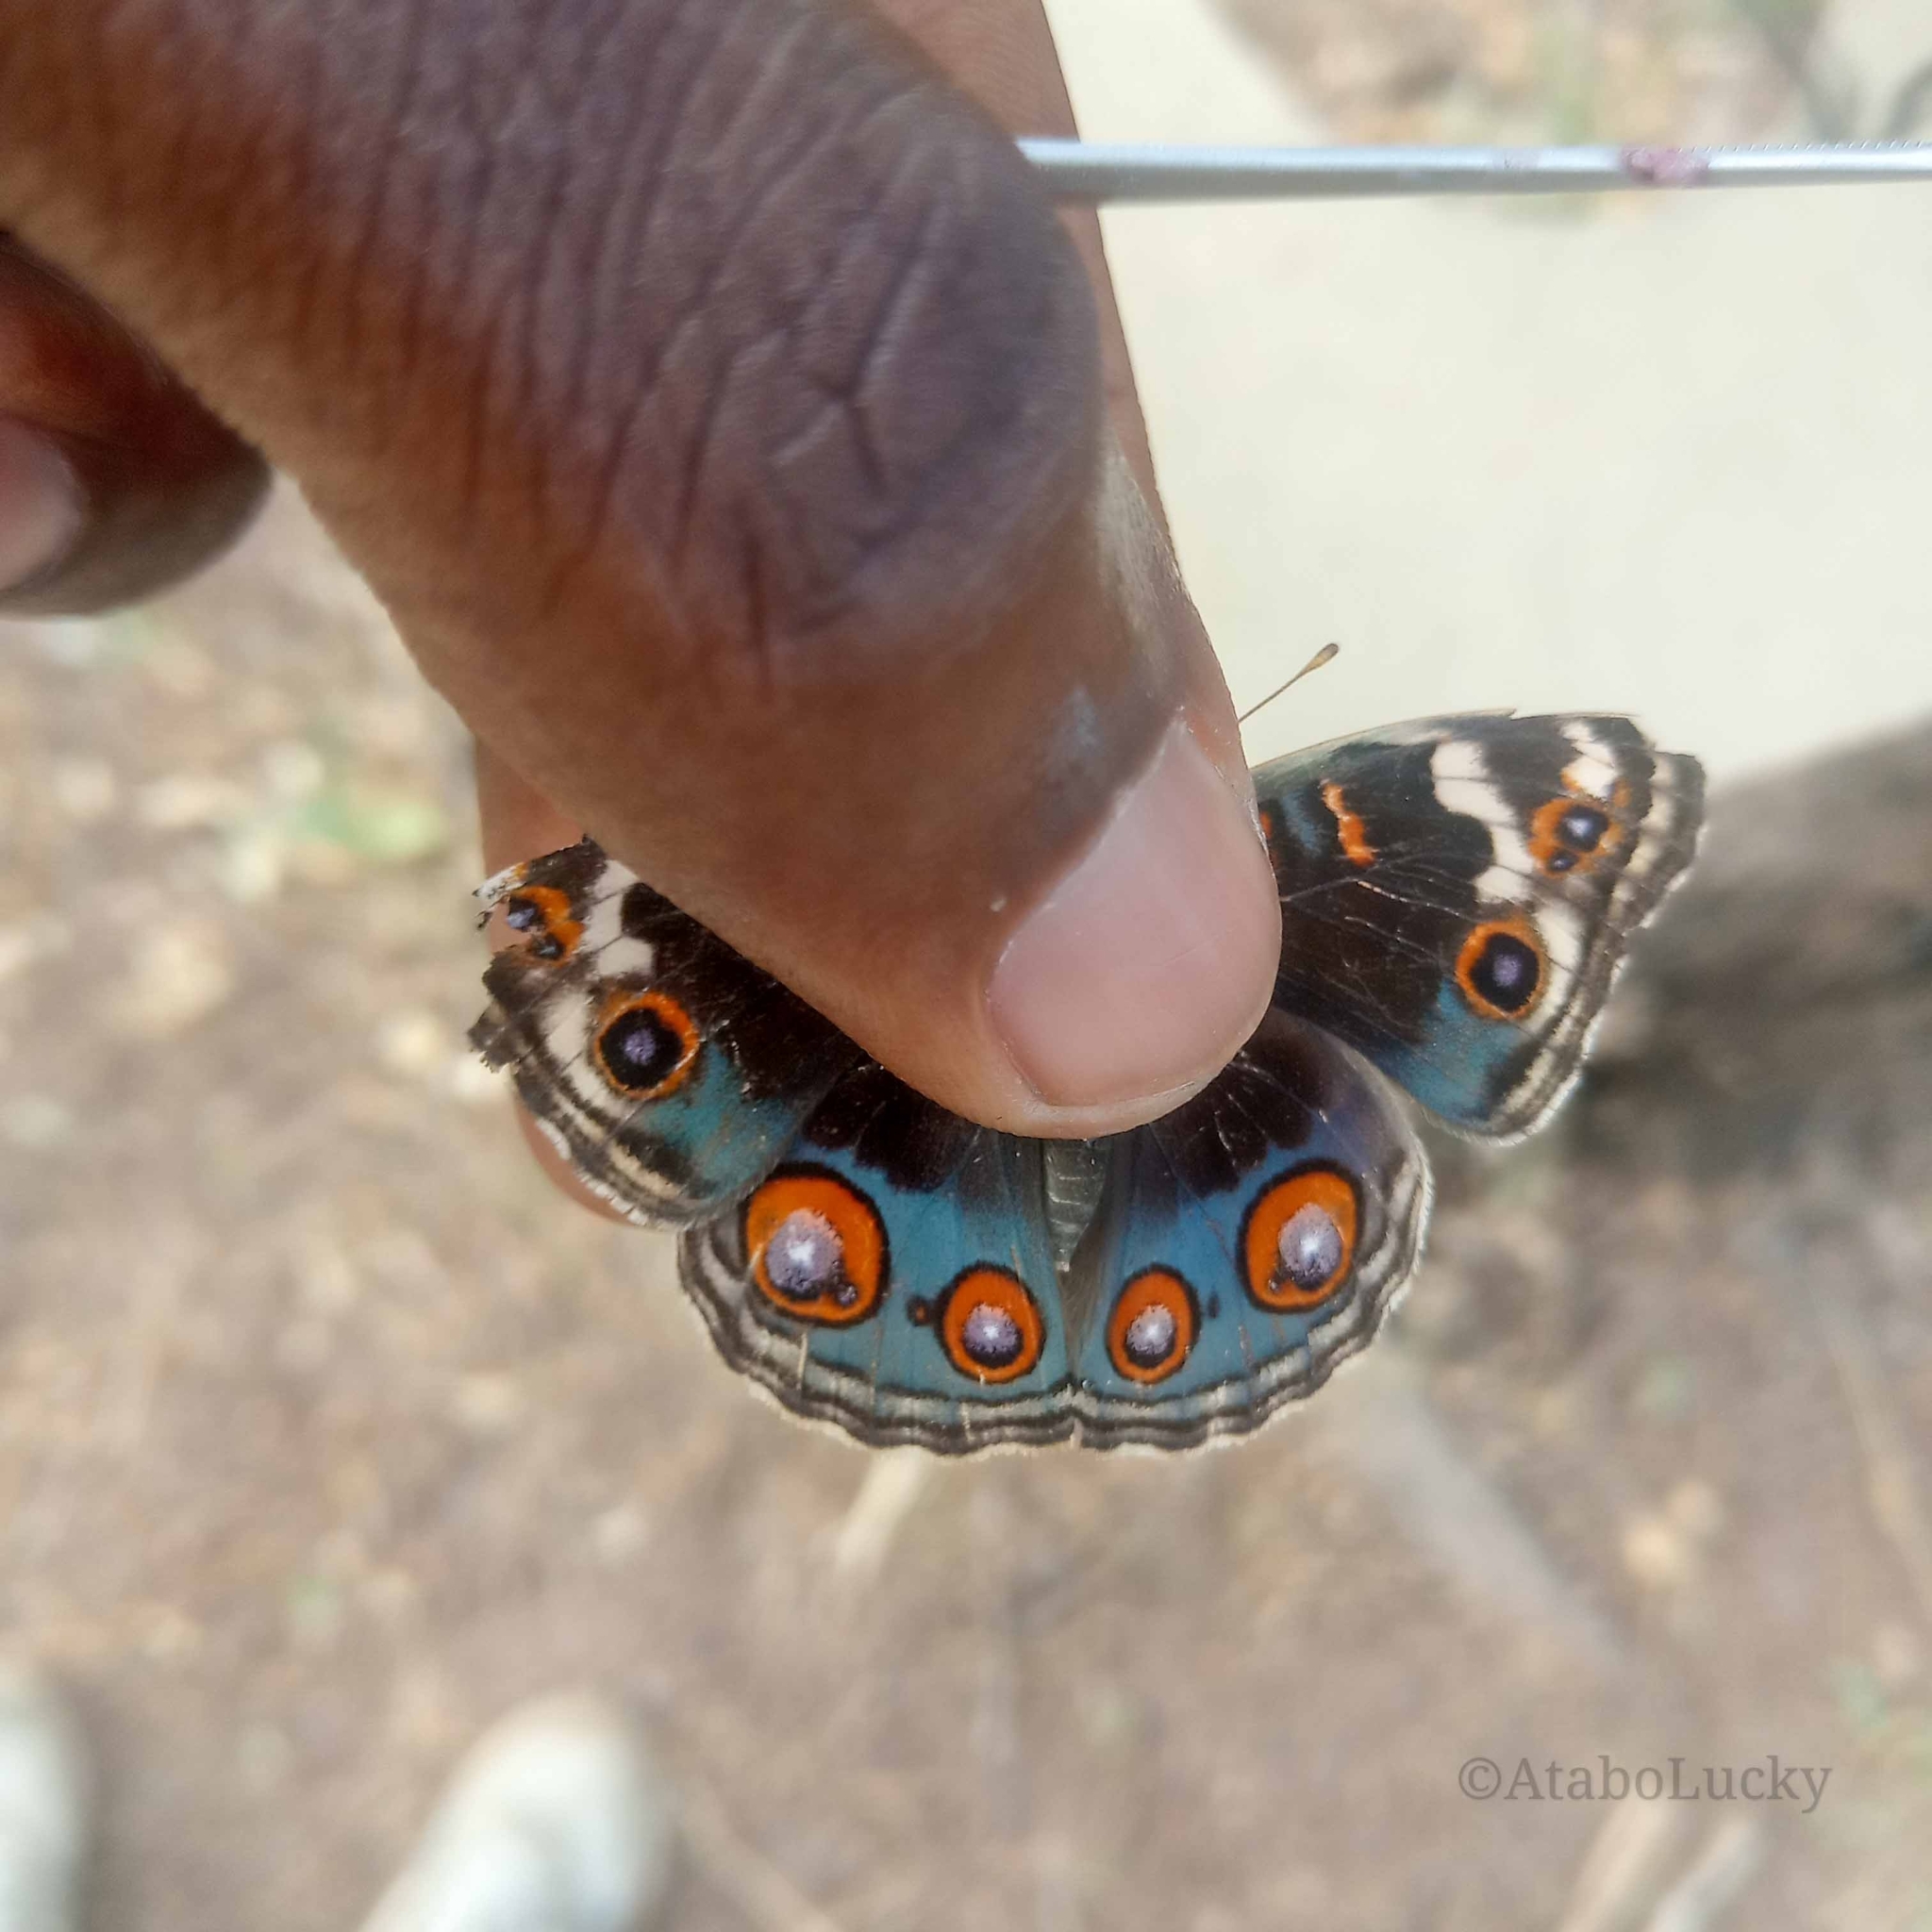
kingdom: Animalia
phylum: Arthropoda
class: Insecta
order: Lepidoptera
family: Nymphalidae
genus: Junonia
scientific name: Junonia orithya
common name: Blue pansy
